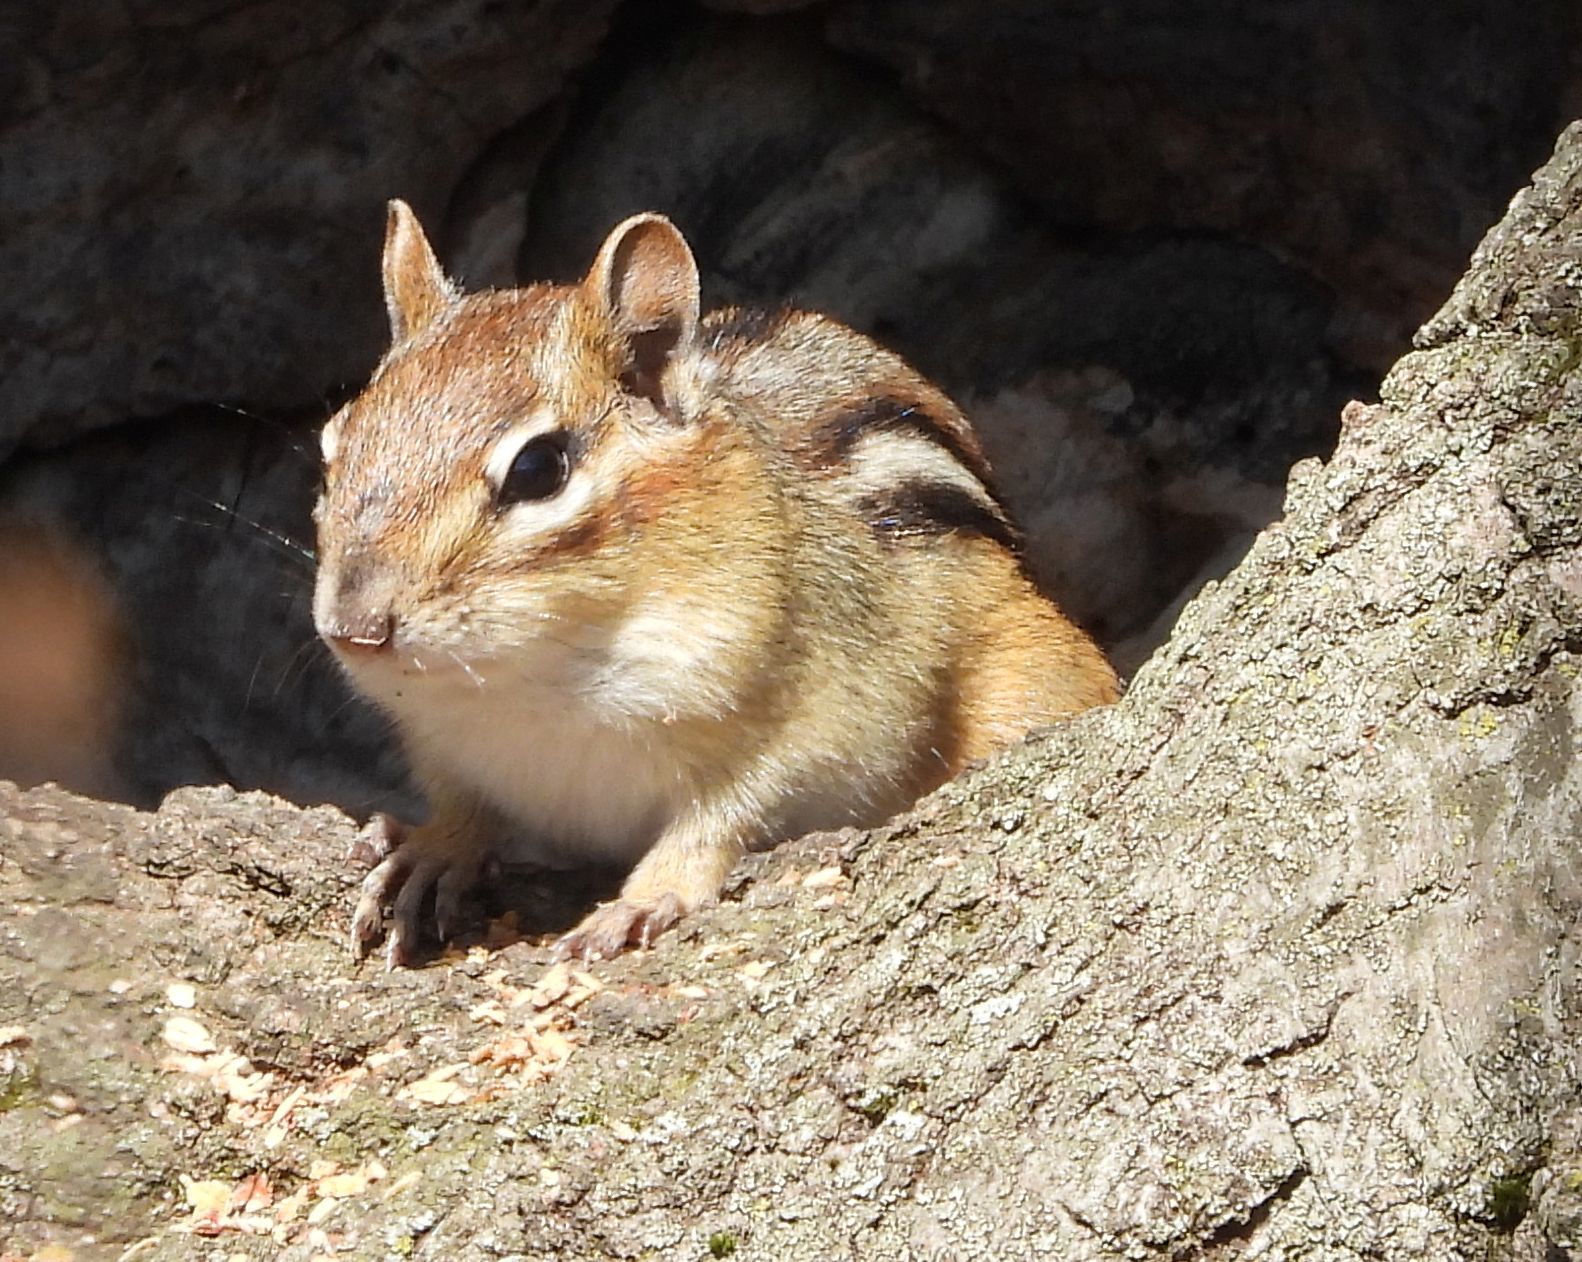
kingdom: Animalia
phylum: Chordata
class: Mammalia
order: Rodentia
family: Sciuridae
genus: Tamias
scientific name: Tamias striatus
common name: Eastern chipmunk
